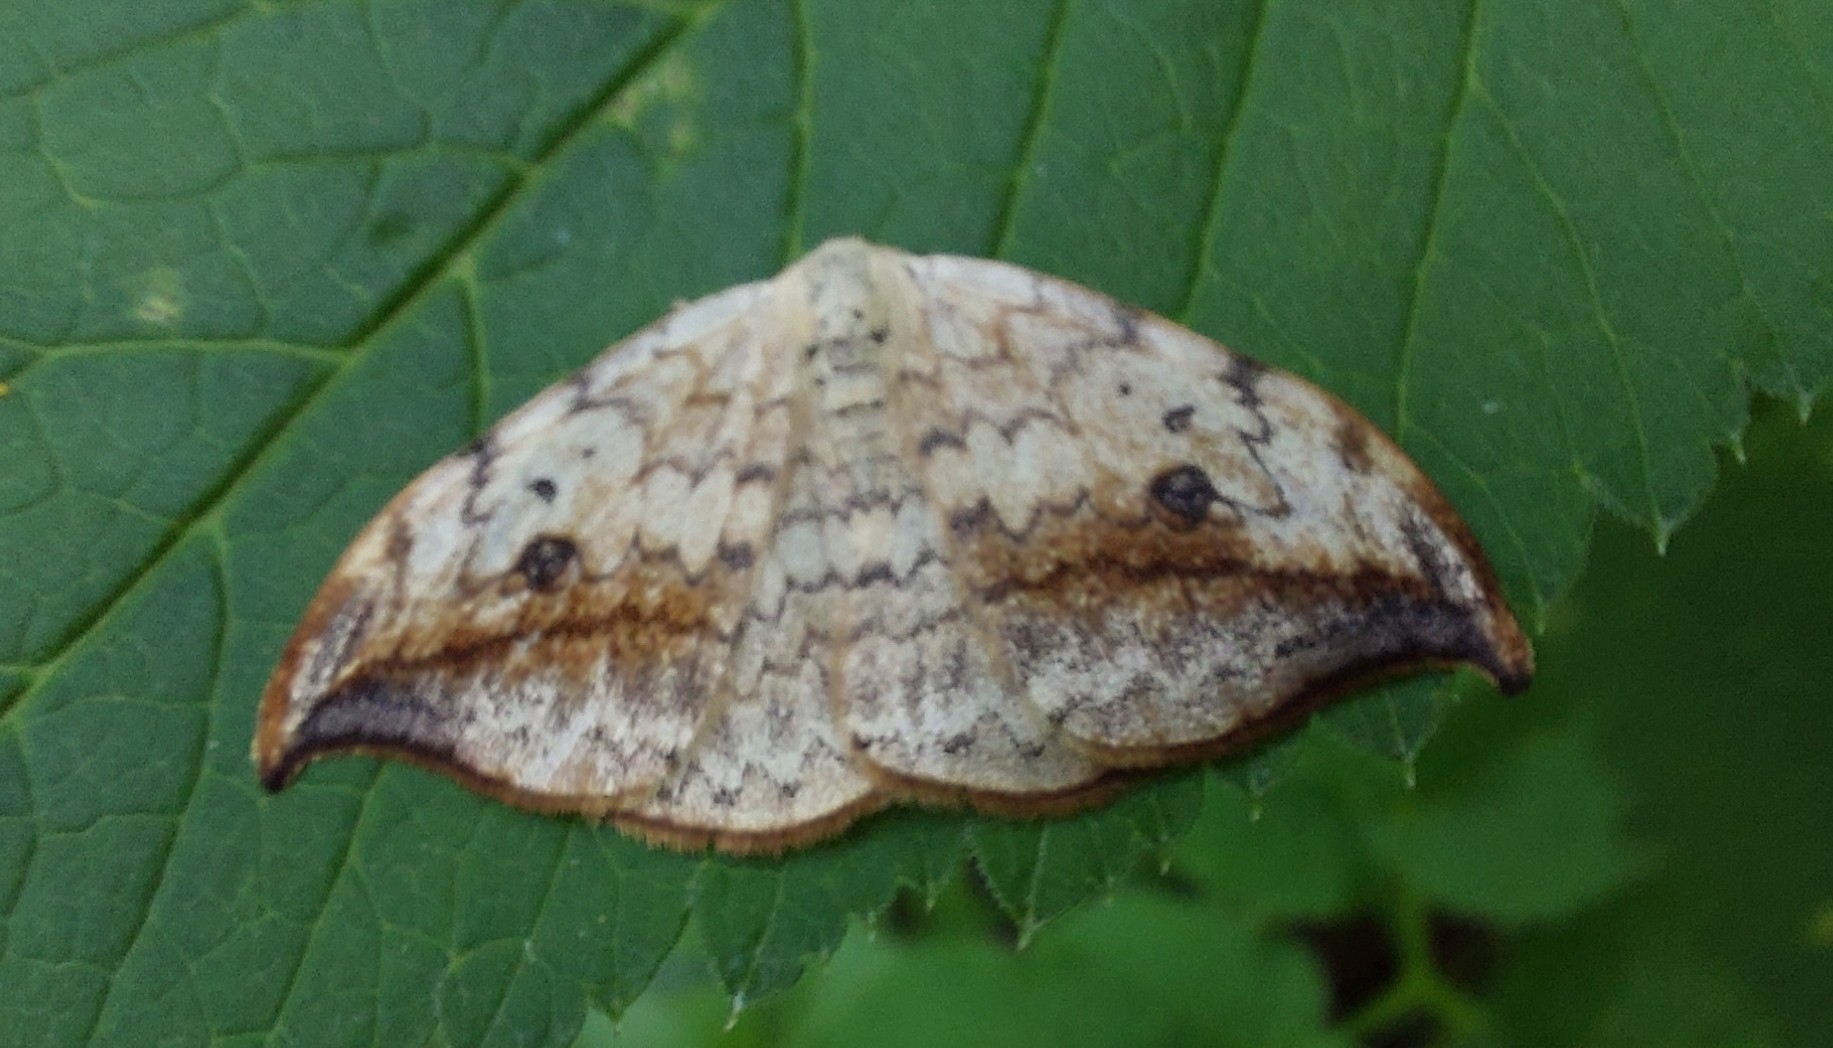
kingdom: Animalia
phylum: Arthropoda
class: Insecta
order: Lepidoptera
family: Drepanidae
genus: Drepana
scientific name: Drepana falcataria
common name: Pebble hook-tip
